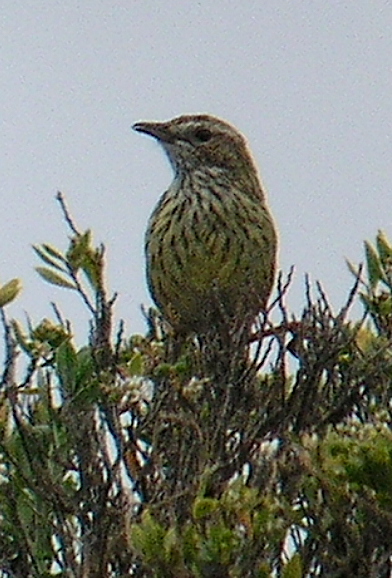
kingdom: Animalia
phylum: Chordata
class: Aves
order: Passeriformes
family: Acanthizidae
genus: Calamanthus
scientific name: Calamanthus fuliginosus
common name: Striated fieldwren
